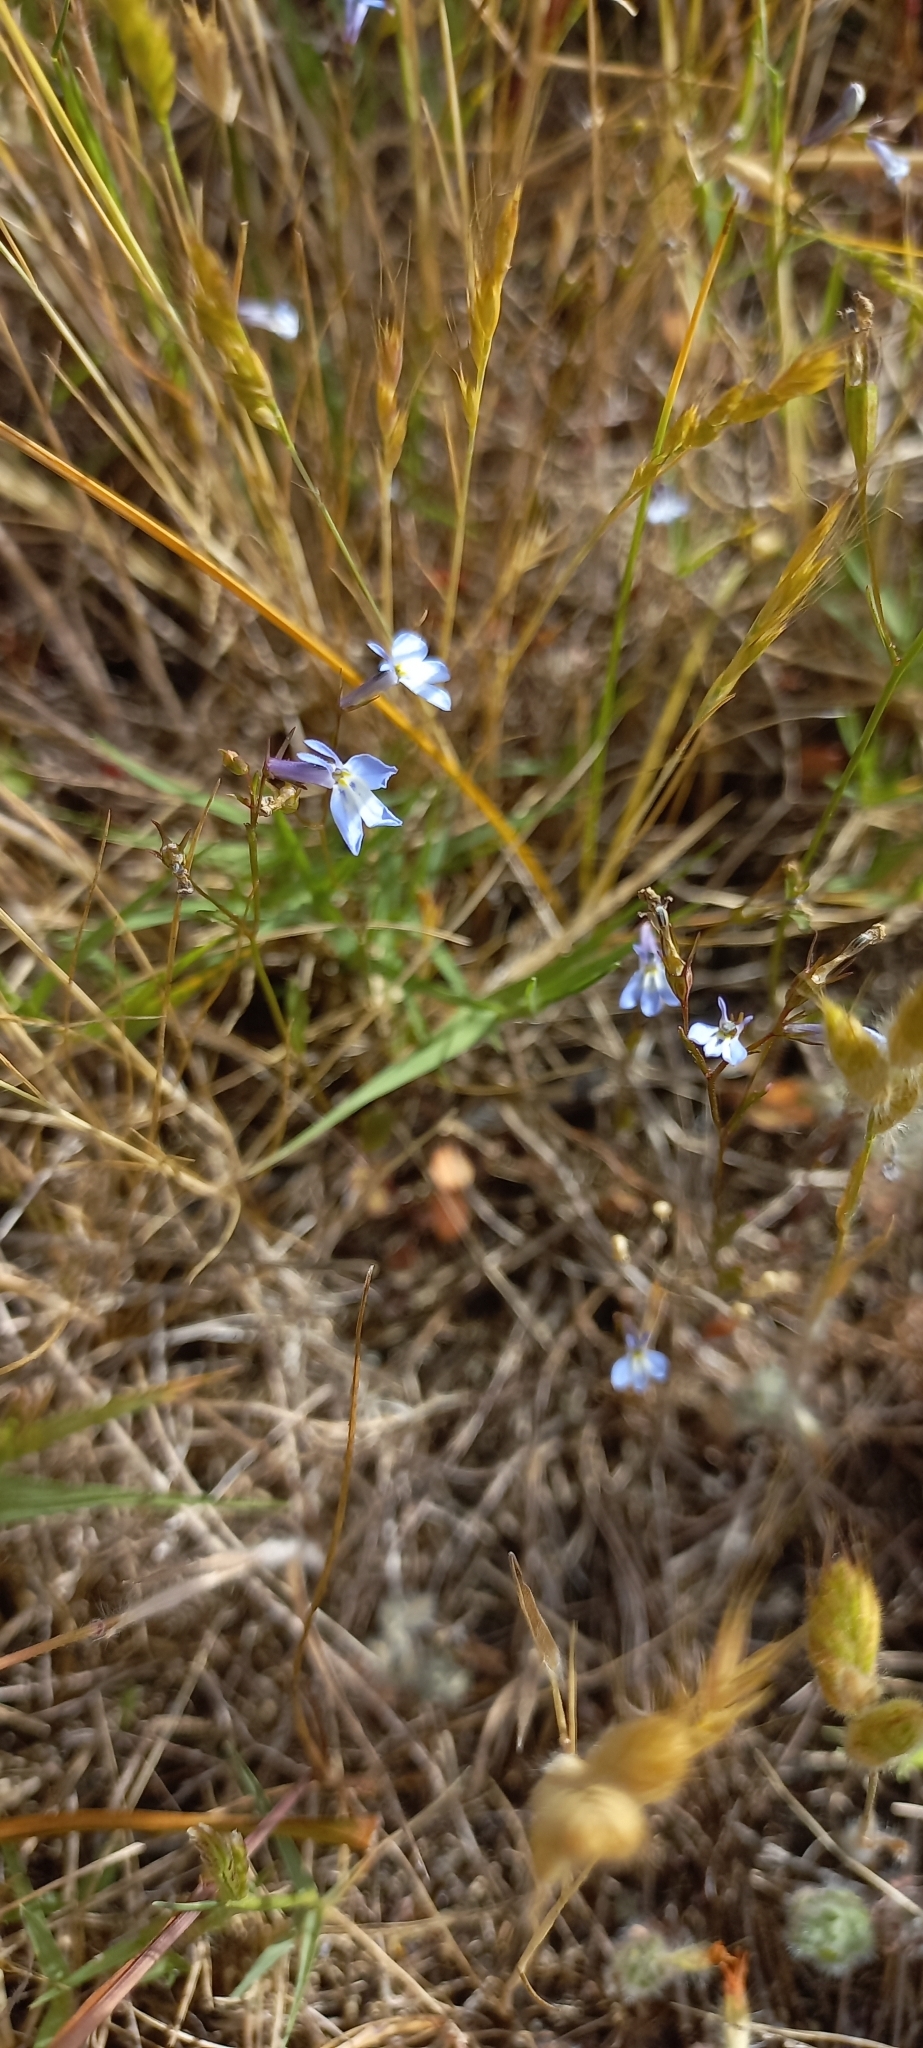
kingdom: Plantae
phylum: Tracheophyta
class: Magnoliopsida
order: Asterales
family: Campanulaceae
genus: Lobelia
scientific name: Lobelia erinus
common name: Edging lobelia
